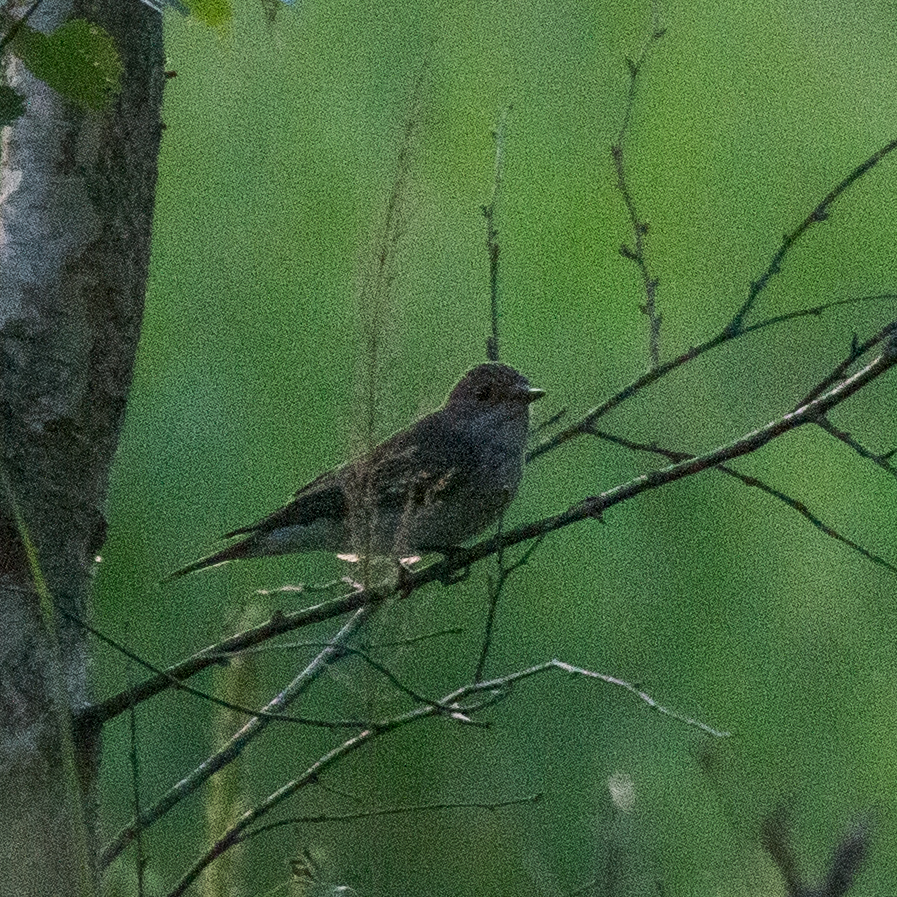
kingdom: Animalia
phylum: Chordata
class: Aves
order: Passeriformes
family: Muscicapidae
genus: Muscicapa
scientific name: Muscicapa striata
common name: Spotted flycatcher
